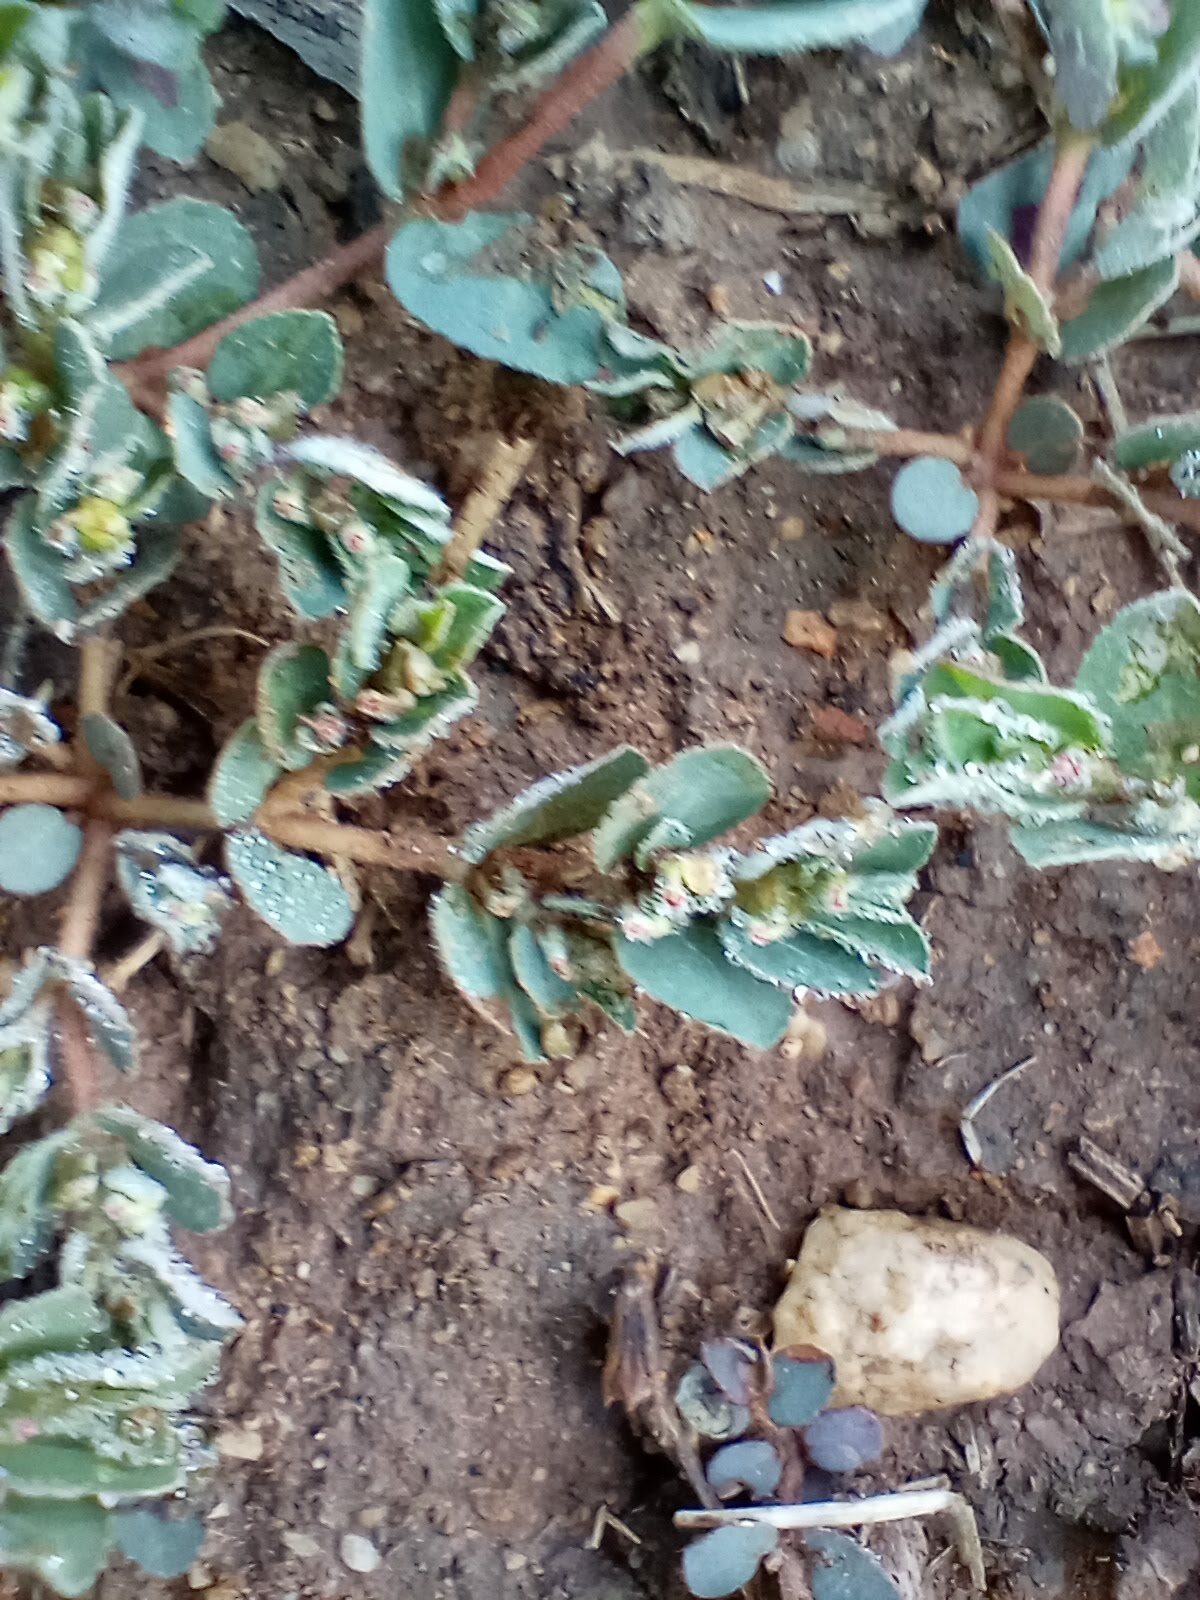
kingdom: Plantae
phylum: Tracheophyta
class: Magnoliopsida
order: Malpighiales
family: Euphorbiaceae
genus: Euphorbia
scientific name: Euphorbia prostrata
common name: Prostrate sandmat
